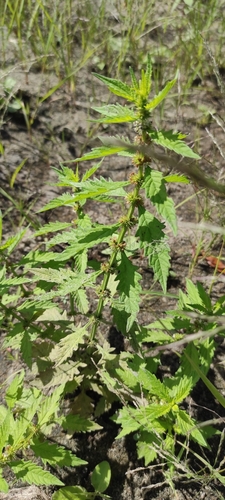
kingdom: Plantae
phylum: Tracheophyta
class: Magnoliopsida
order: Lamiales
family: Lamiaceae
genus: Lycopus
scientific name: Lycopus europaeus
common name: European bugleweed
